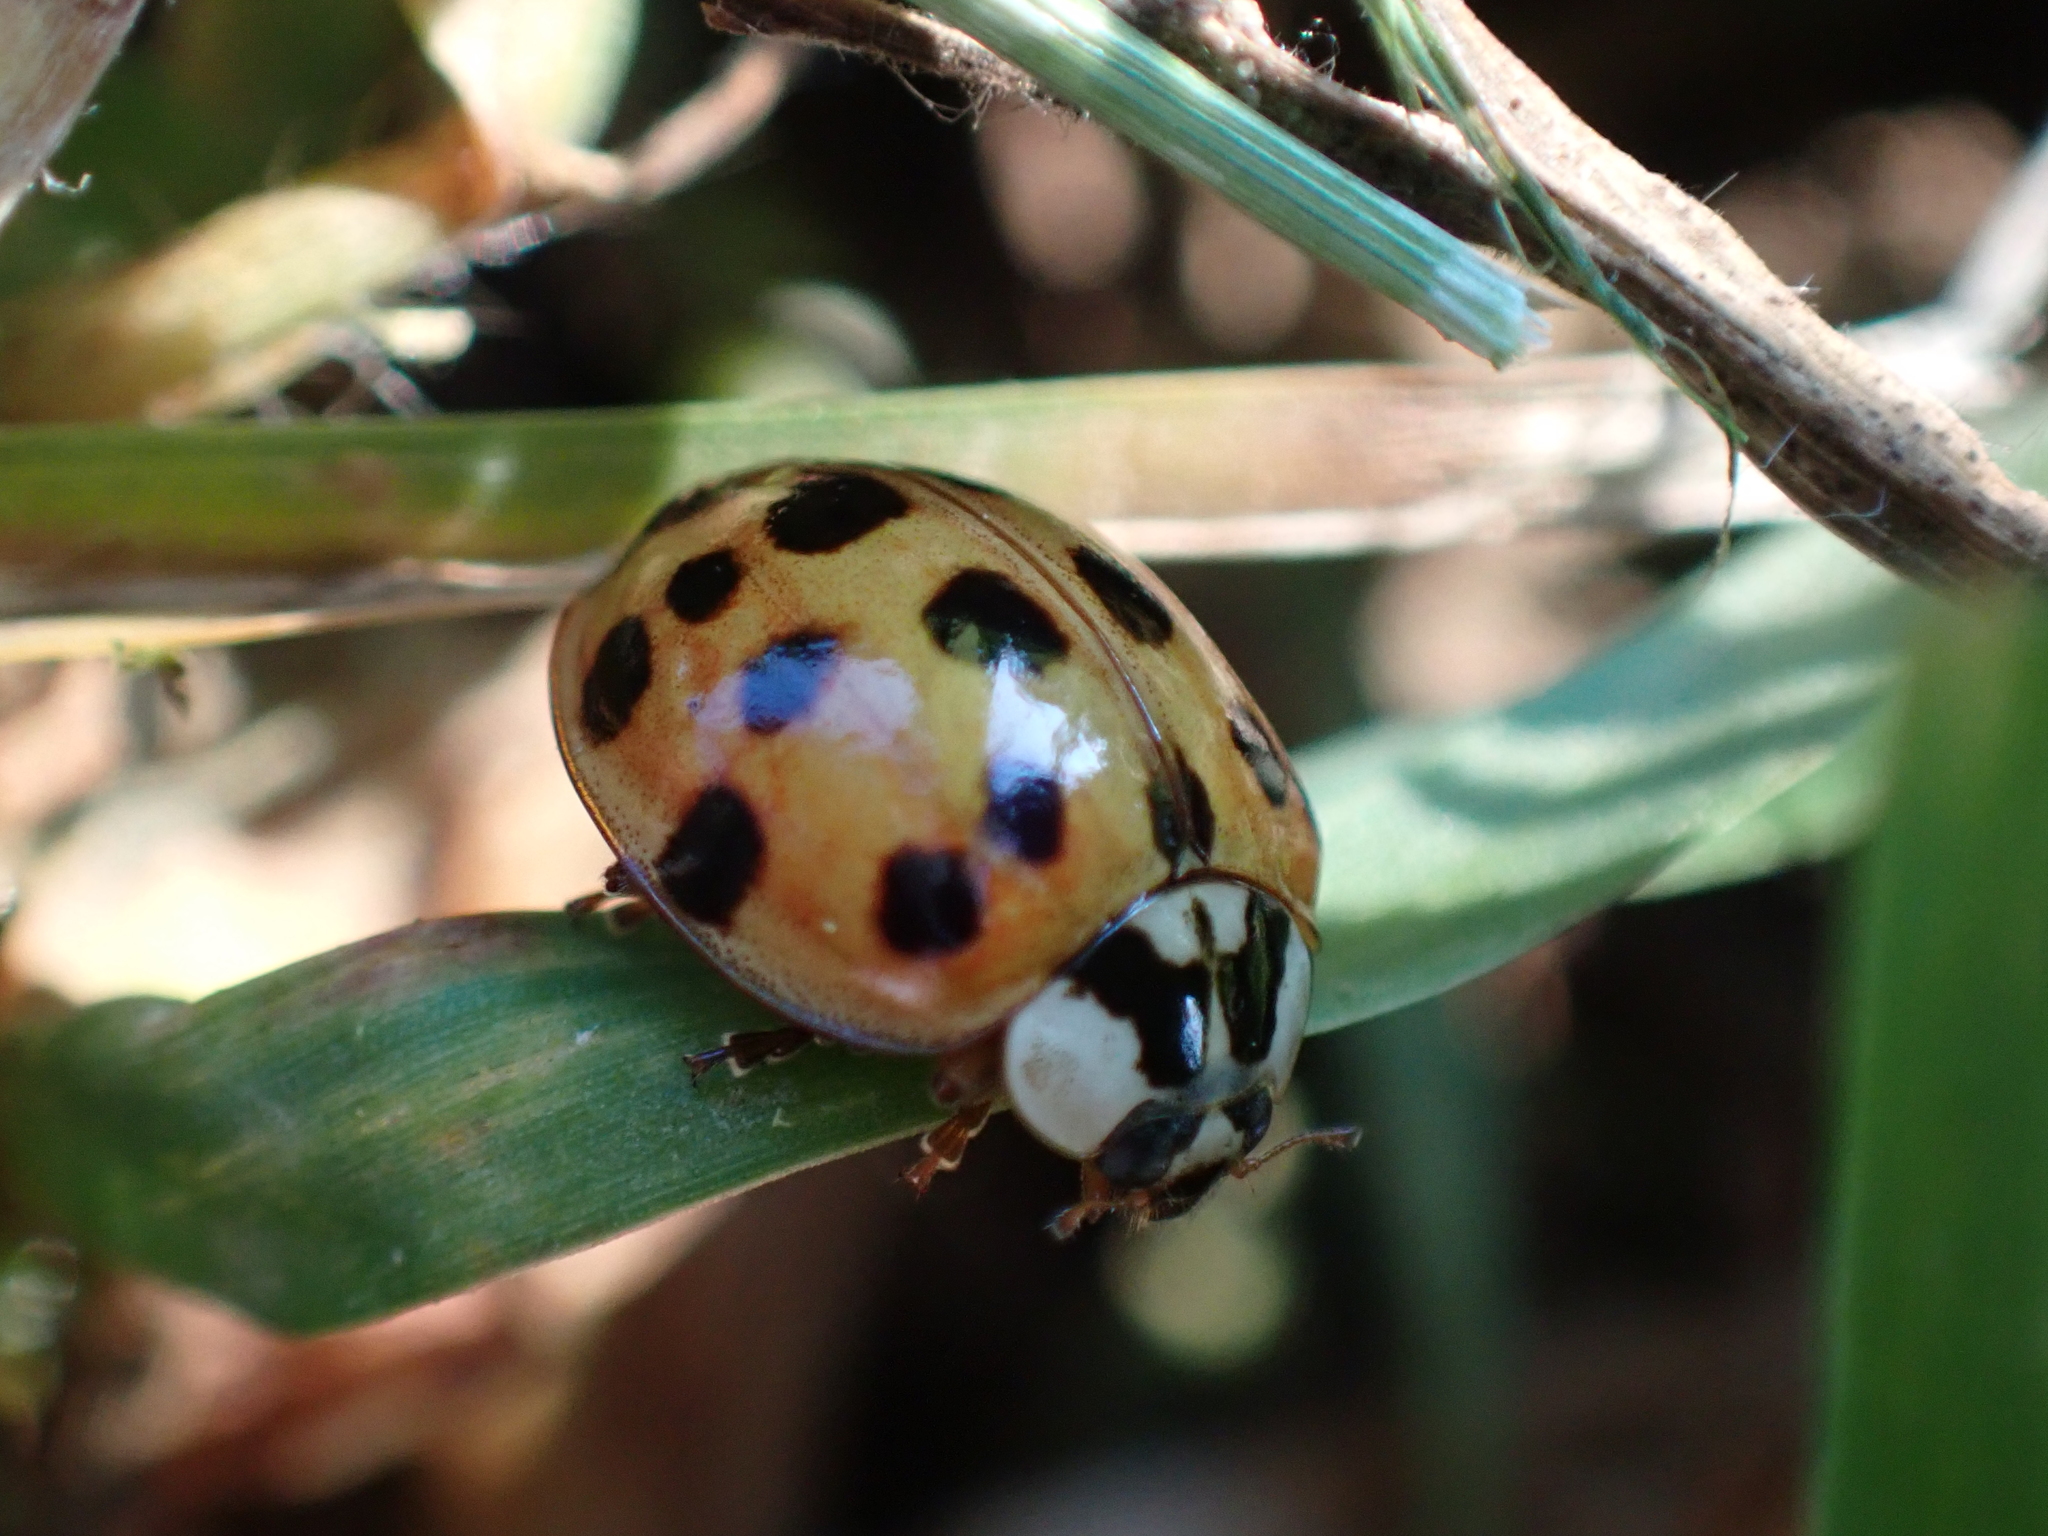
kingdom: Animalia
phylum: Arthropoda
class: Insecta
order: Coleoptera
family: Coccinellidae
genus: Harmonia
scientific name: Harmonia axyridis
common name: Harlequin ladybird
